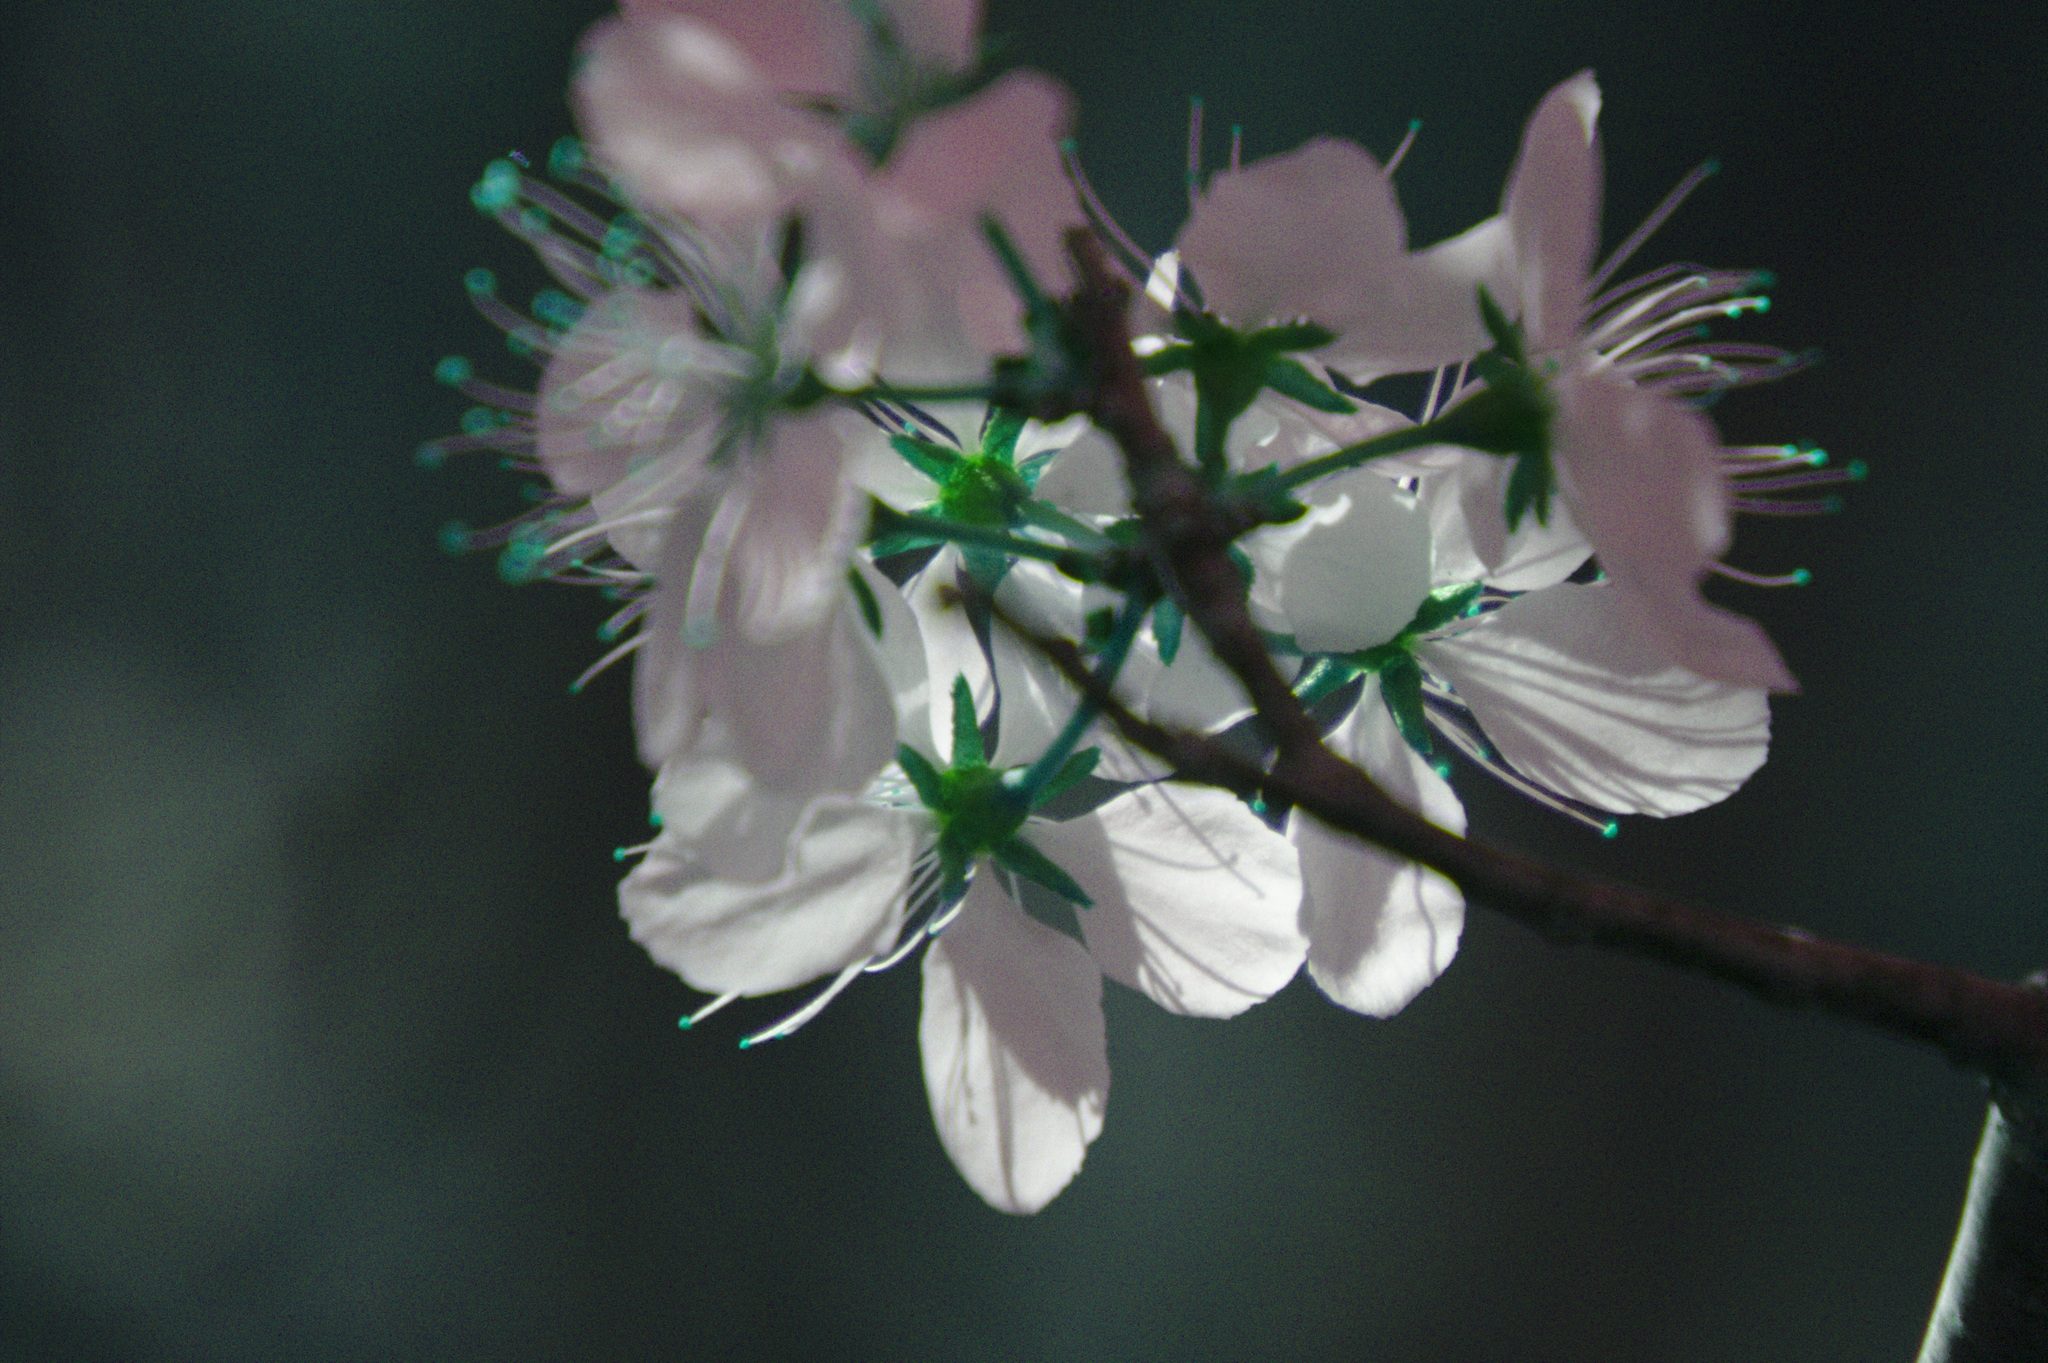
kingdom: Plantae
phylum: Tracheophyta
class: Magnoliopsida
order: Rosales
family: Rosaceae
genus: Prunus
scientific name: Prunus nigra
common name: Black plum
